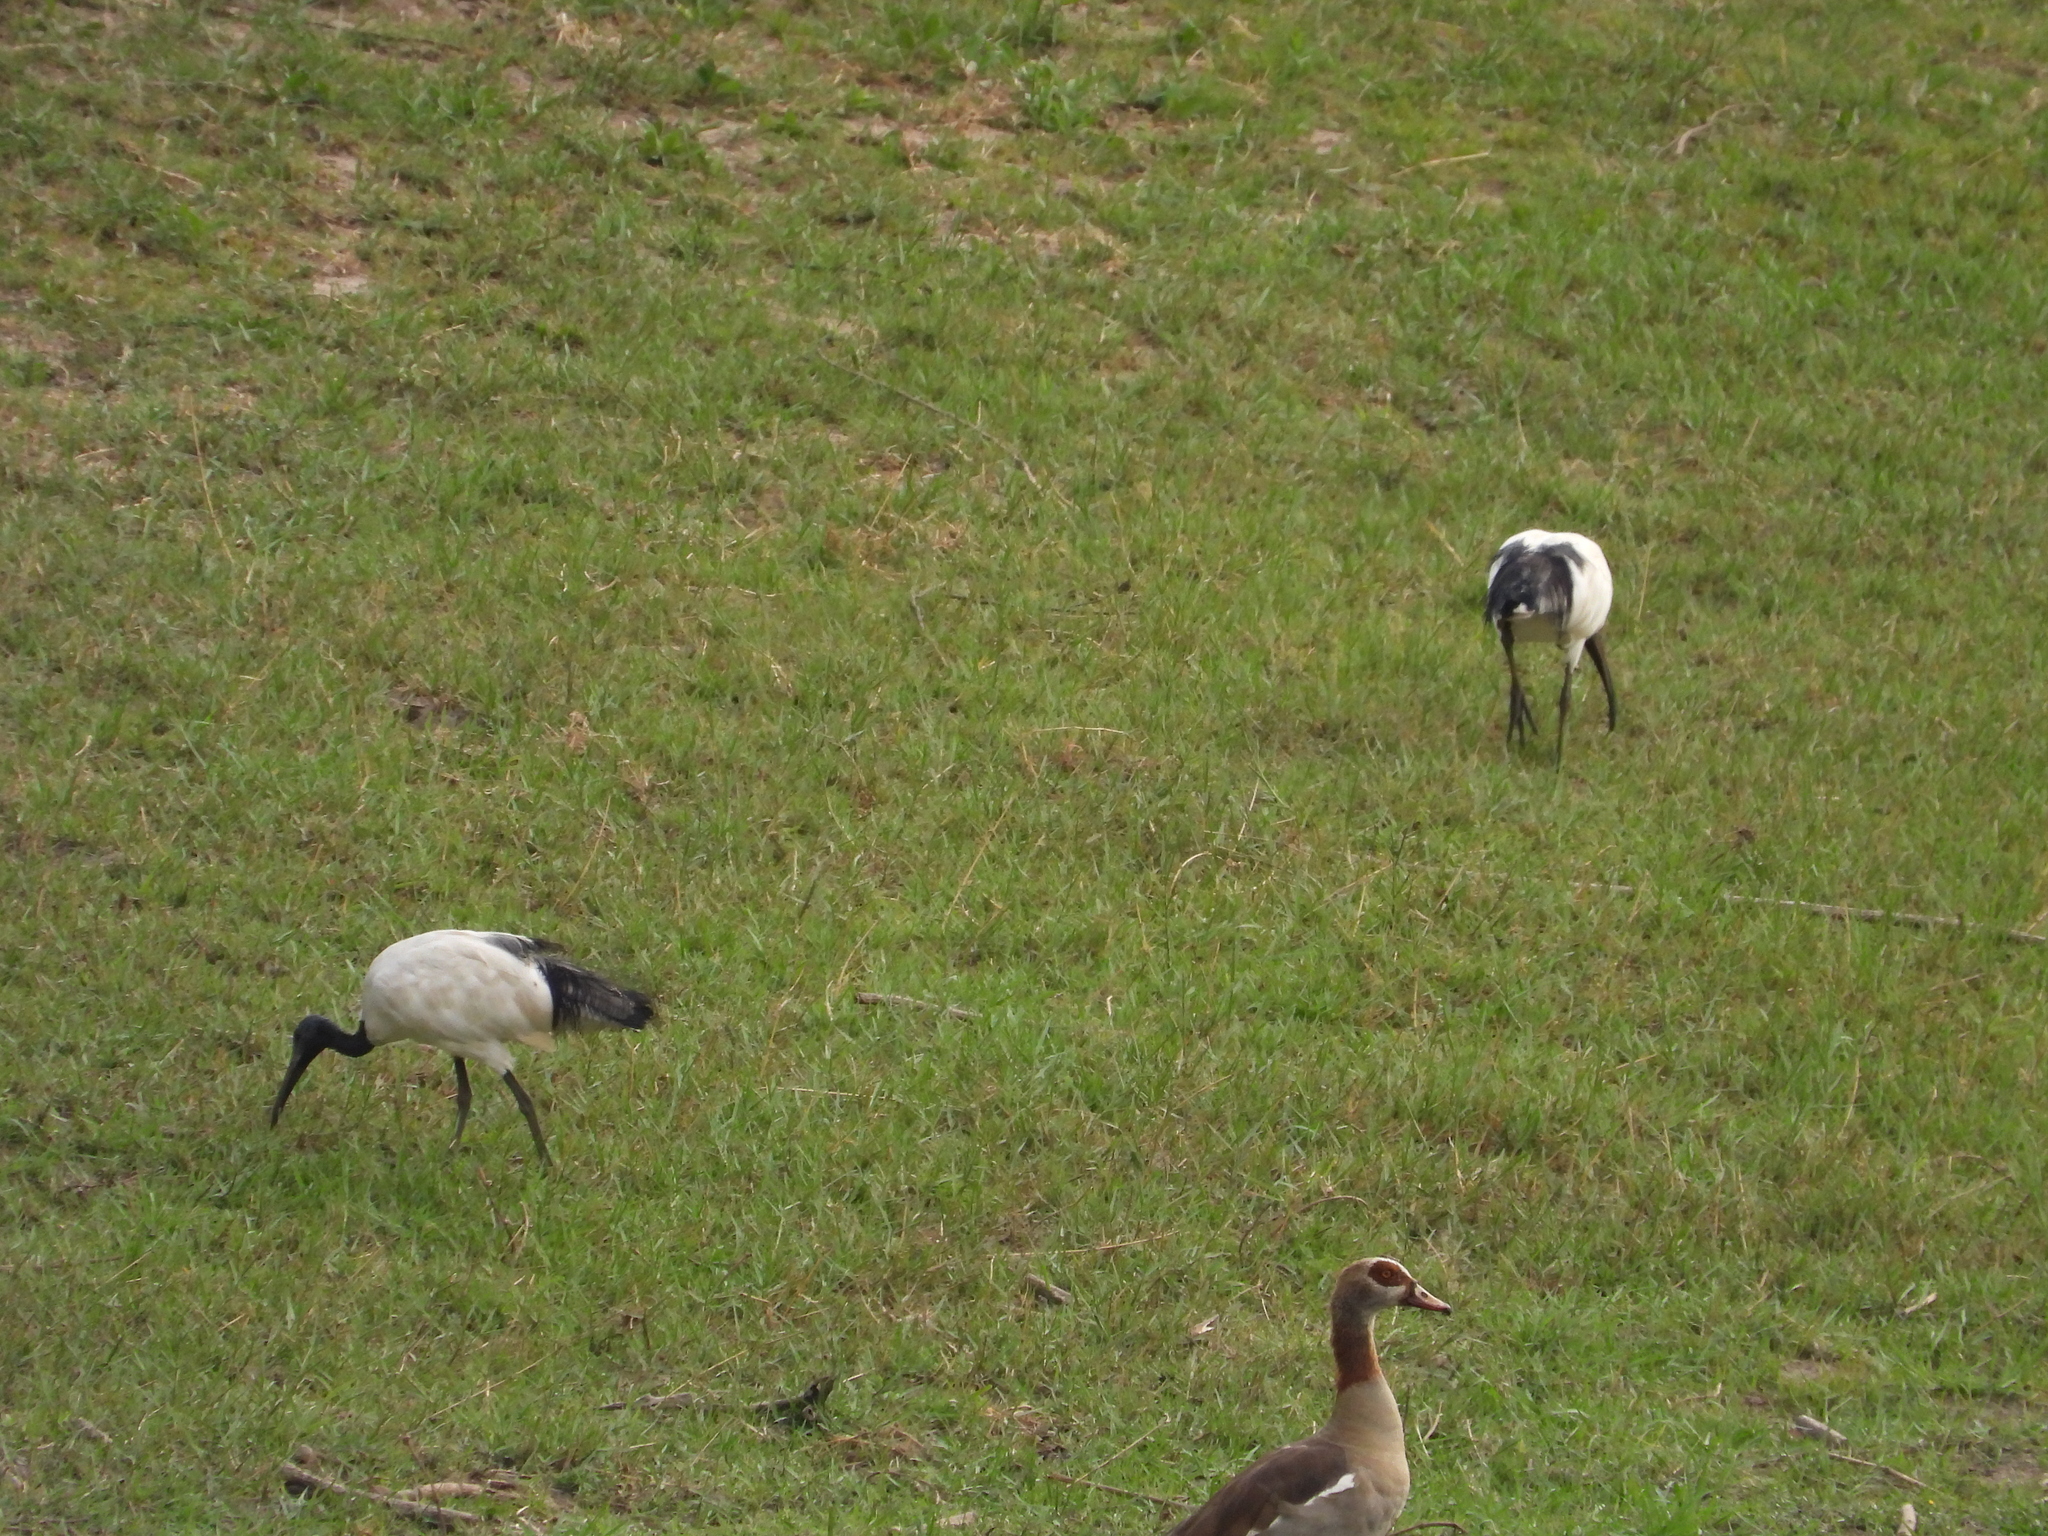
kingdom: Animalia
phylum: Chordata
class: Aves
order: Anseriformes
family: Anatidae
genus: Alopochen
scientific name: Alopochen aegyptiaca
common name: Egyptian goose
